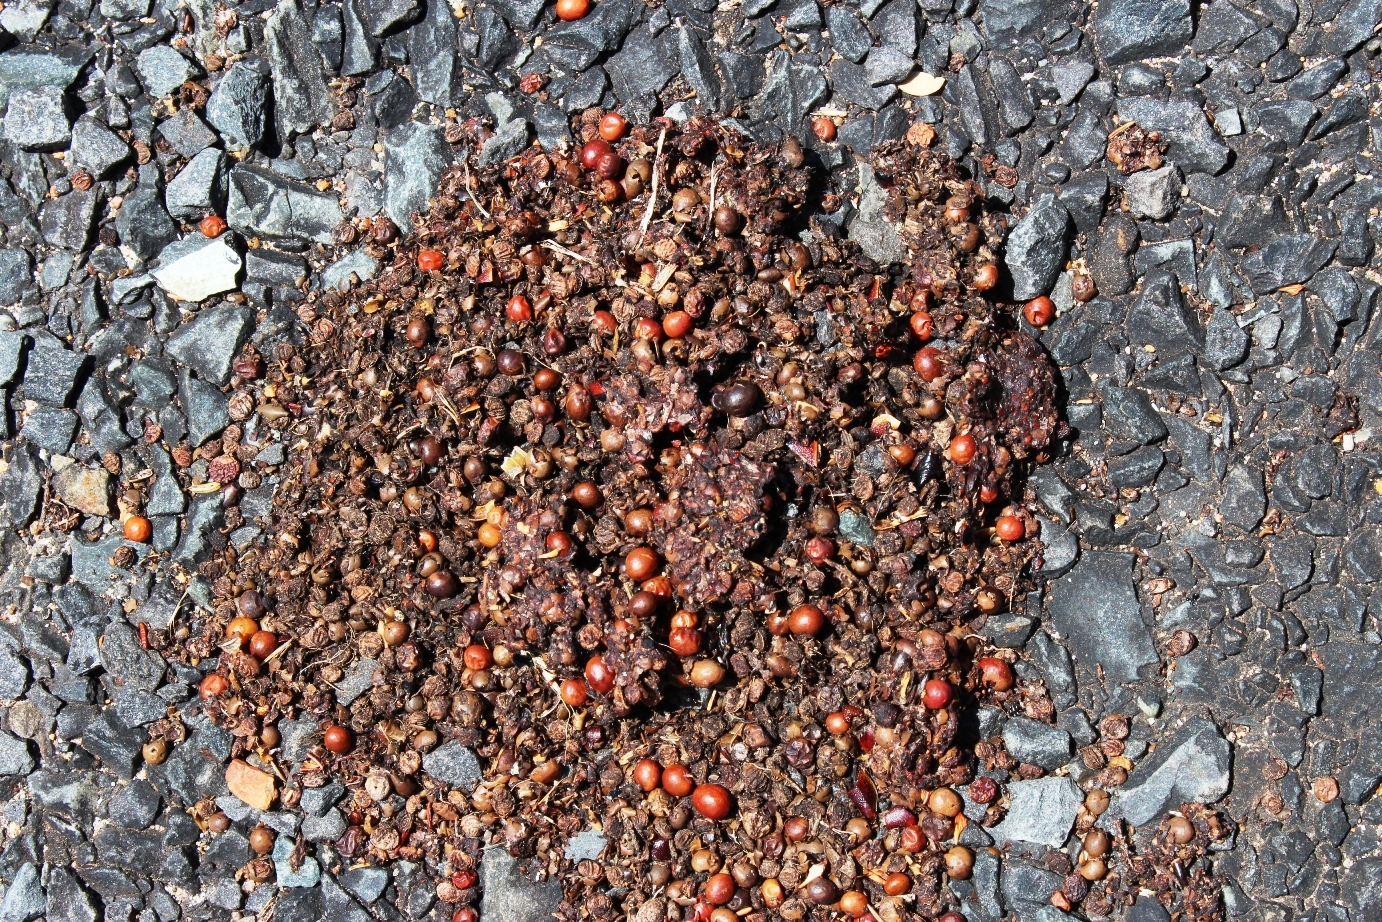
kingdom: Animalia
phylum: Chordata
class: Mammalia
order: Primates
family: Cercopithecidae
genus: Papio
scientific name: Papio ursinus
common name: Chacma baboon
